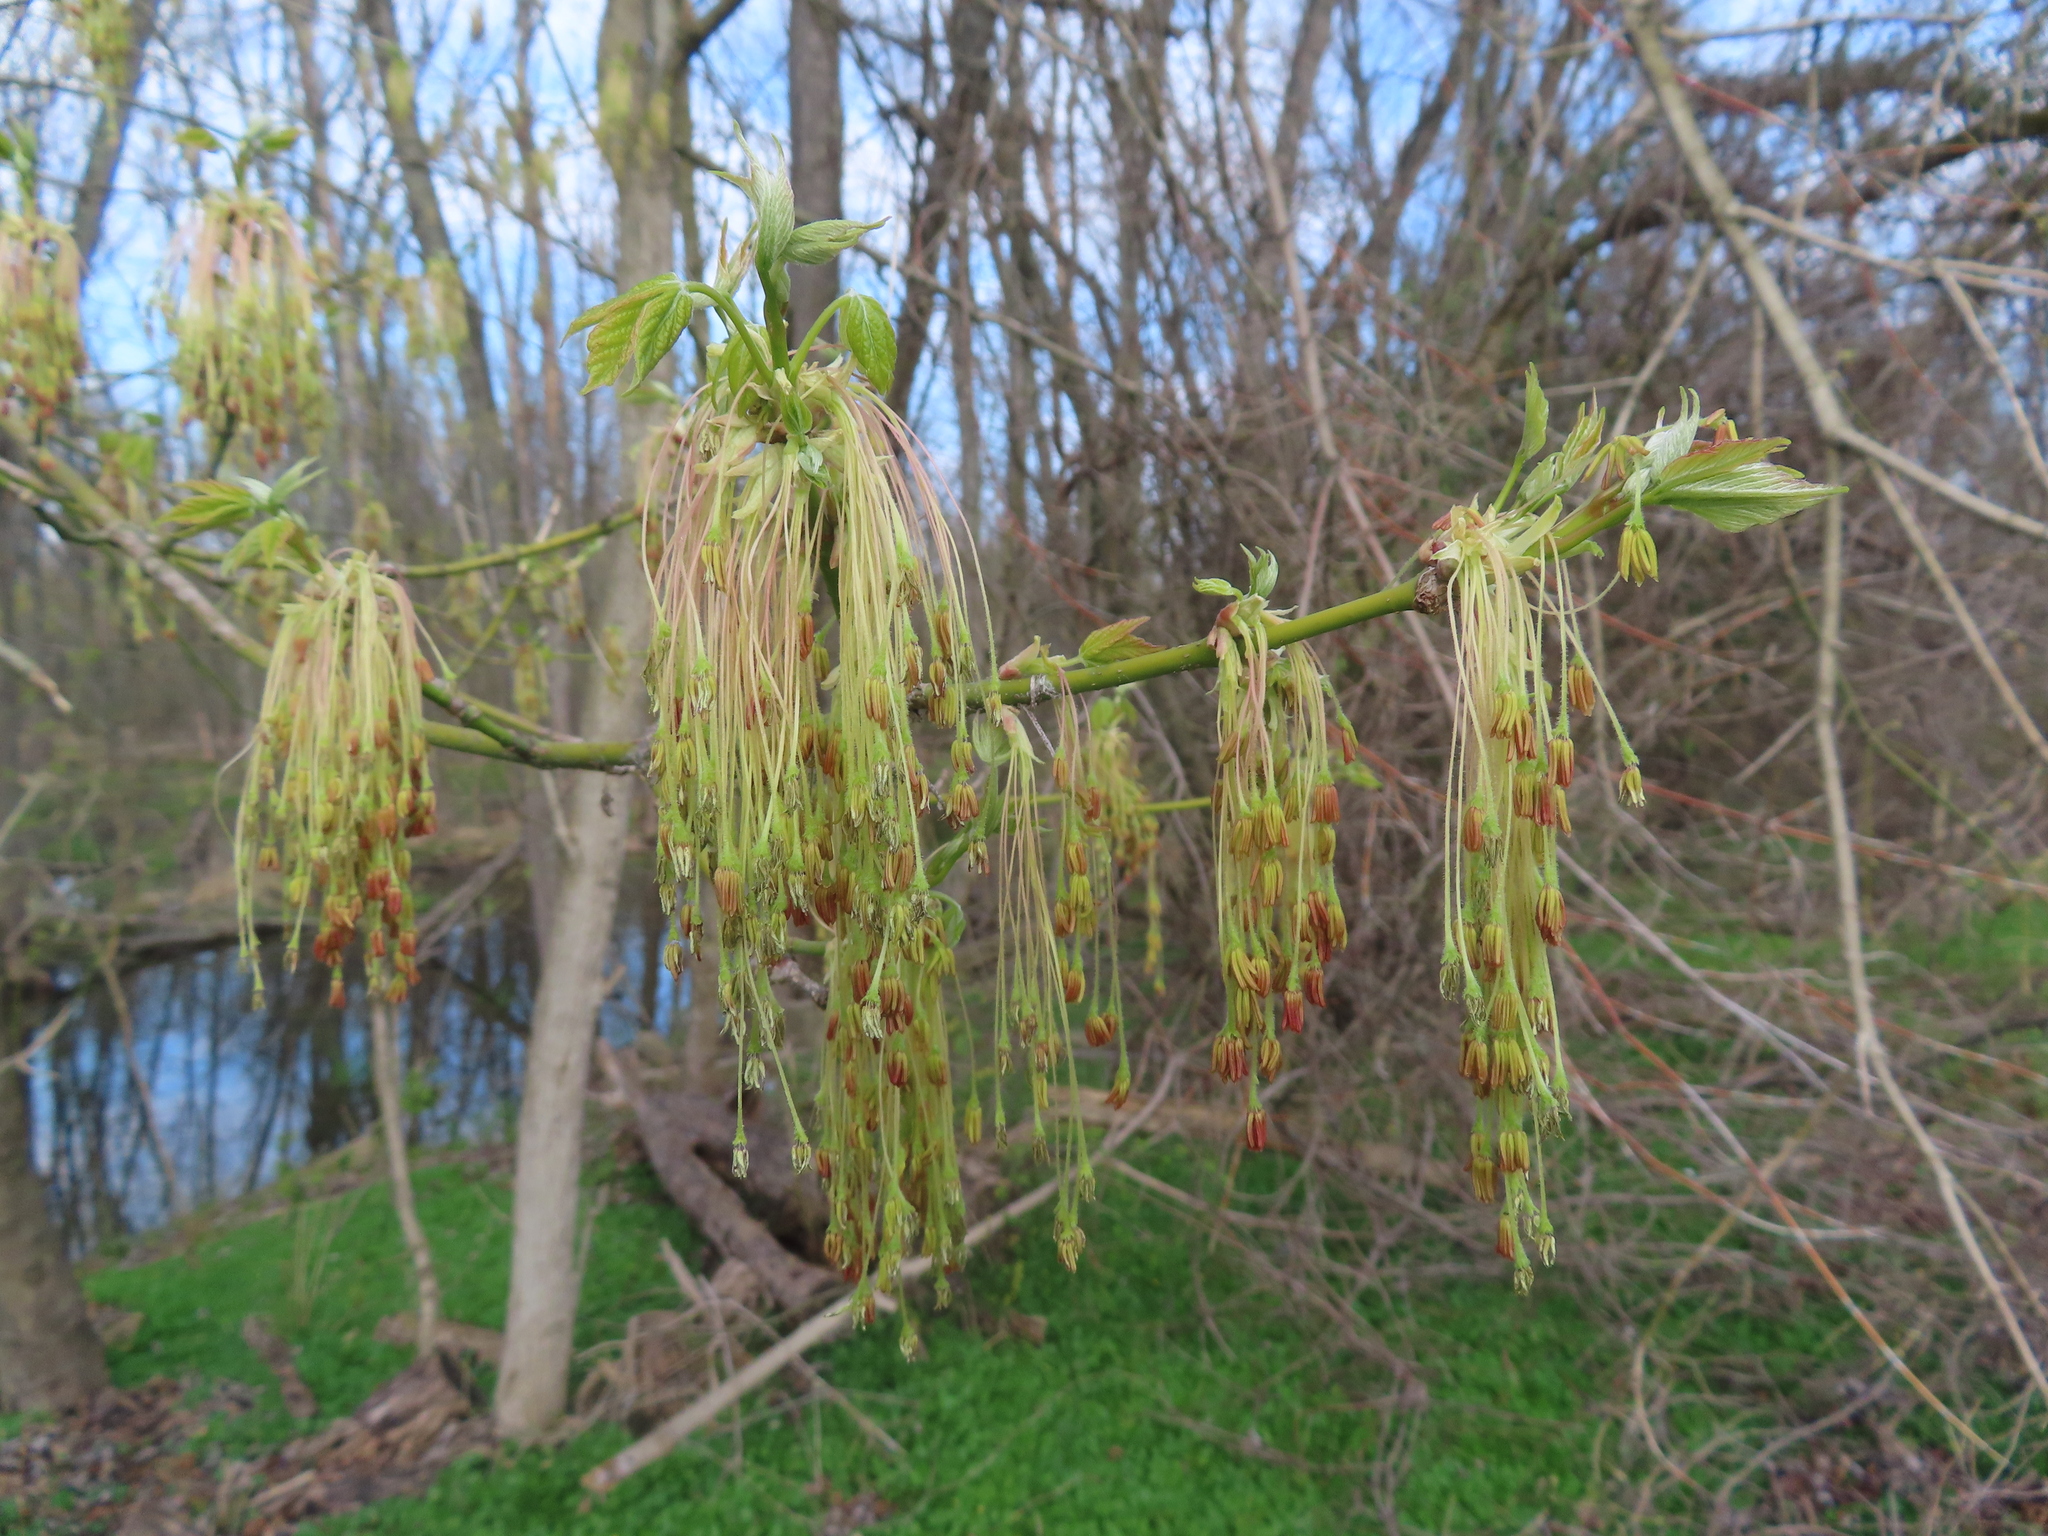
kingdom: Plantae
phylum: Tracheophyta
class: Magnoliopsida
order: Sapindales
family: Sapindaceae
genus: Acer
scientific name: Acer negundo
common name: Ashleaf maple
